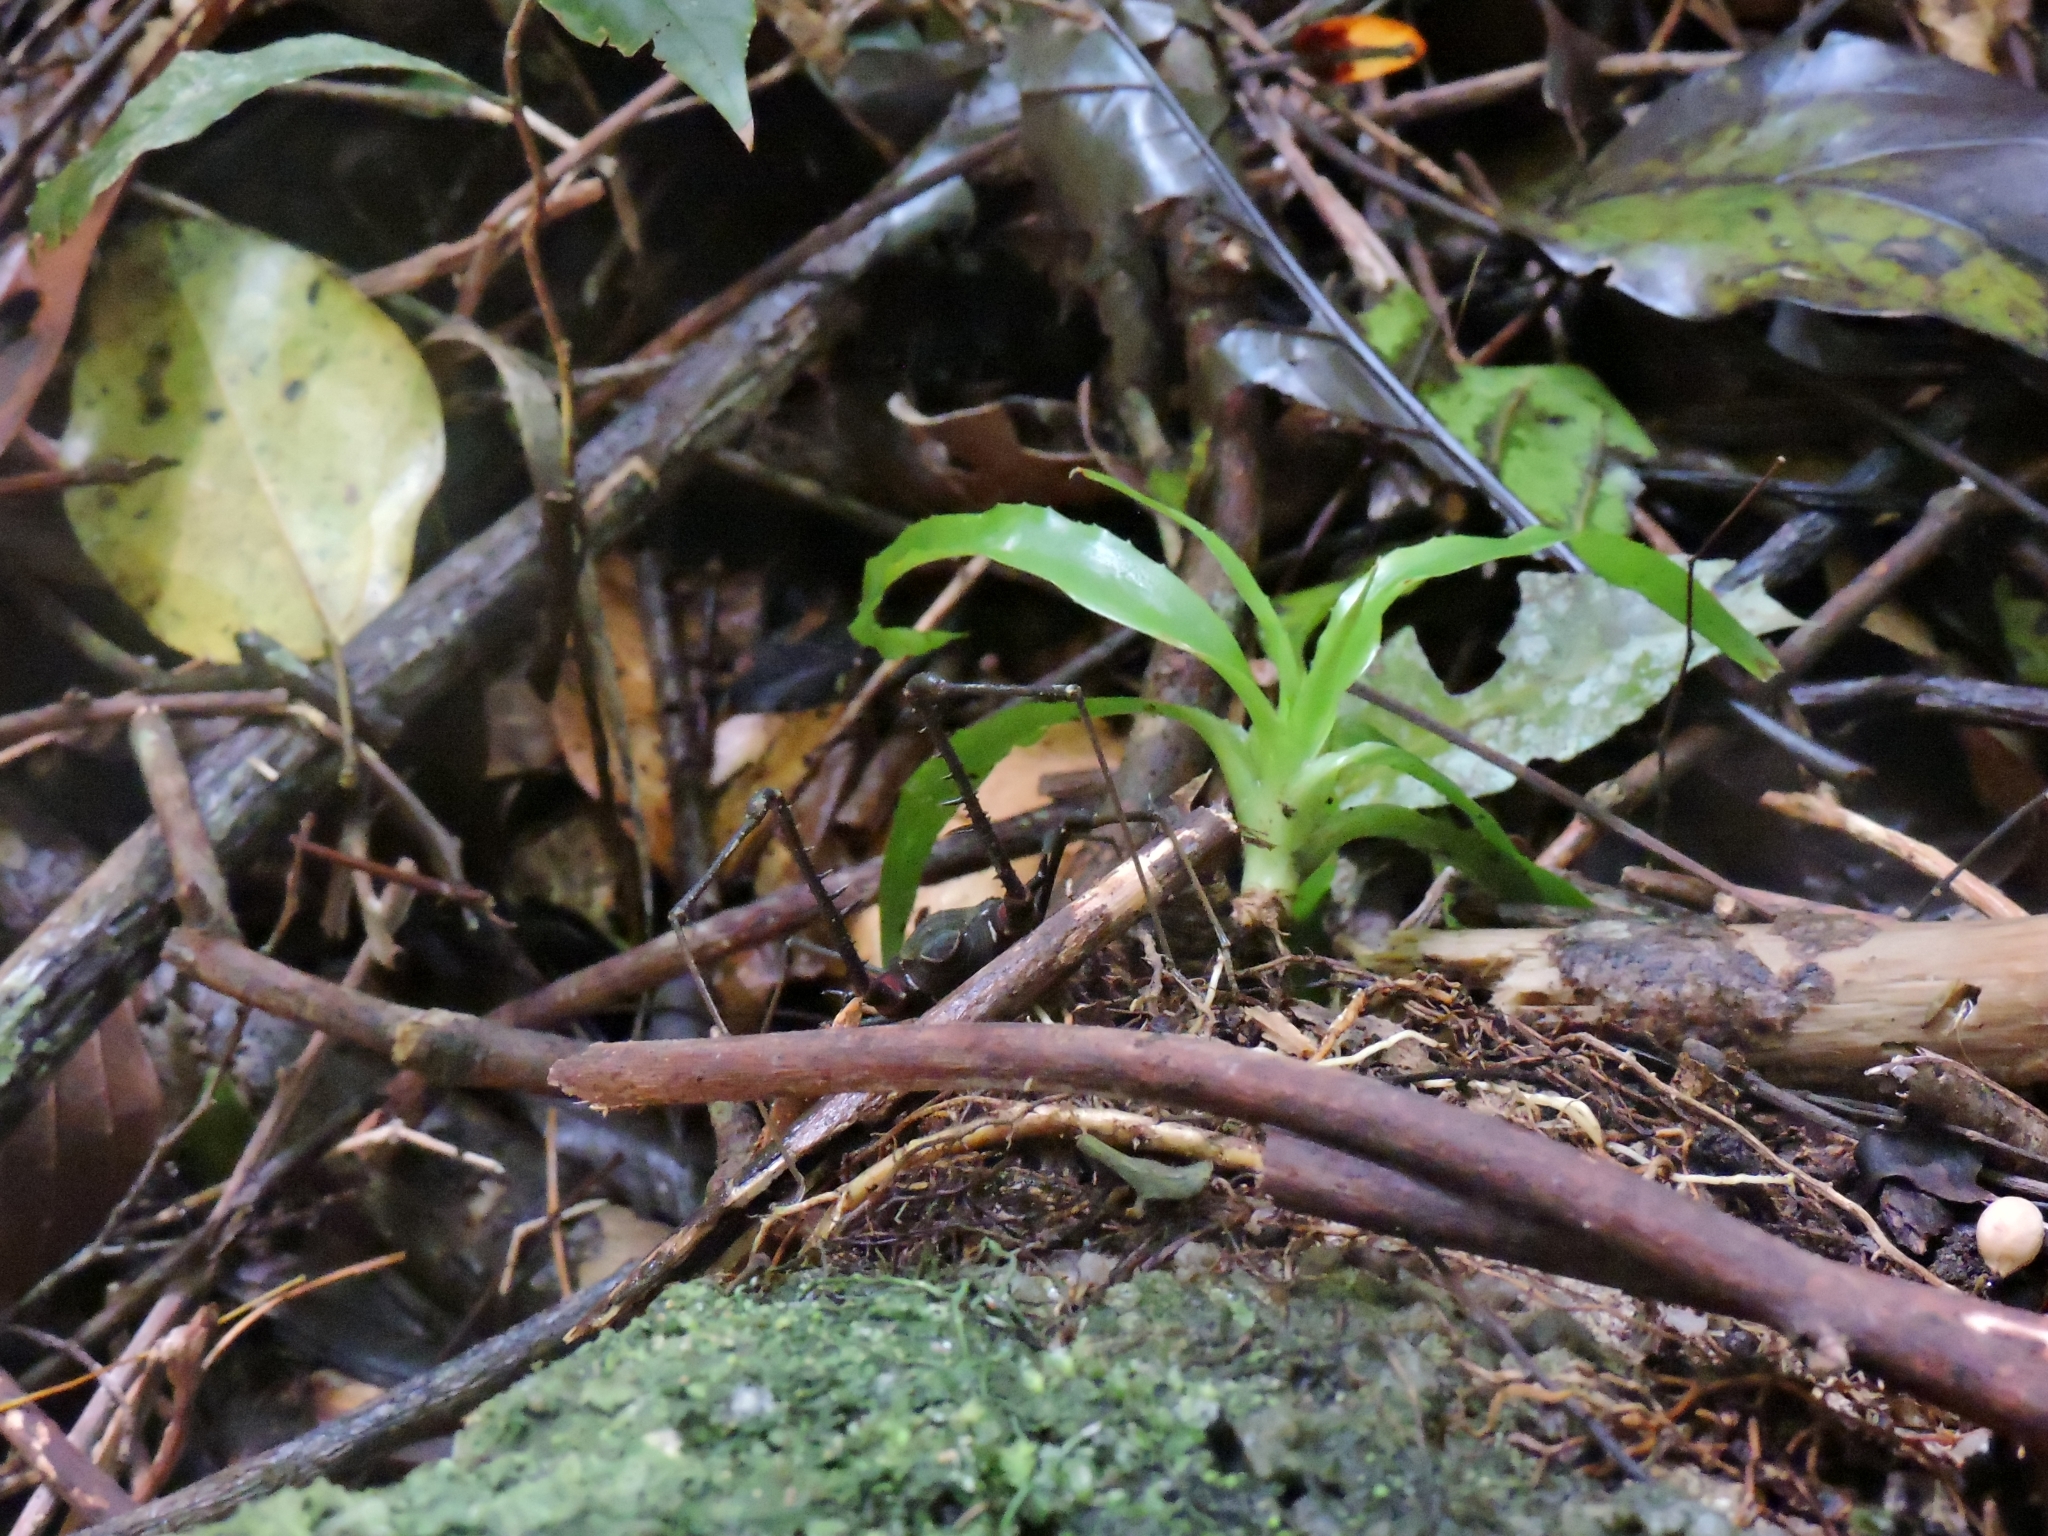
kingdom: Animalia
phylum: Arthropoda
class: Arachnida
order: Opiliones
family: Gonyleptidae
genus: Geraeocormobius
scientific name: Geraeocormobius rohri
